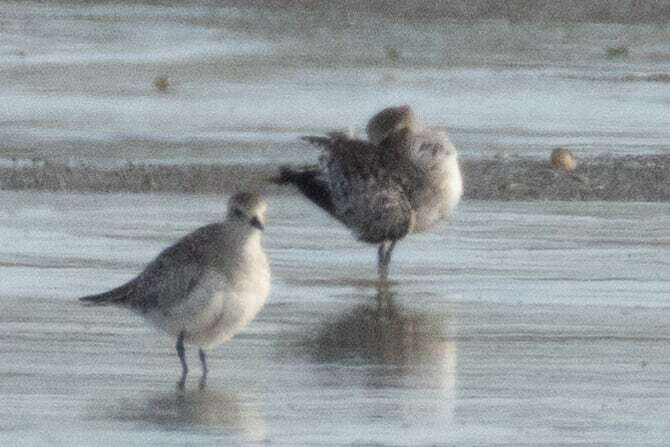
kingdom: Animalia
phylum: Chordata
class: Aves
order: Charadriiformes
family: Charadriidae
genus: Pluvialis
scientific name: Pluvialis squatarola
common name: Grey plover
